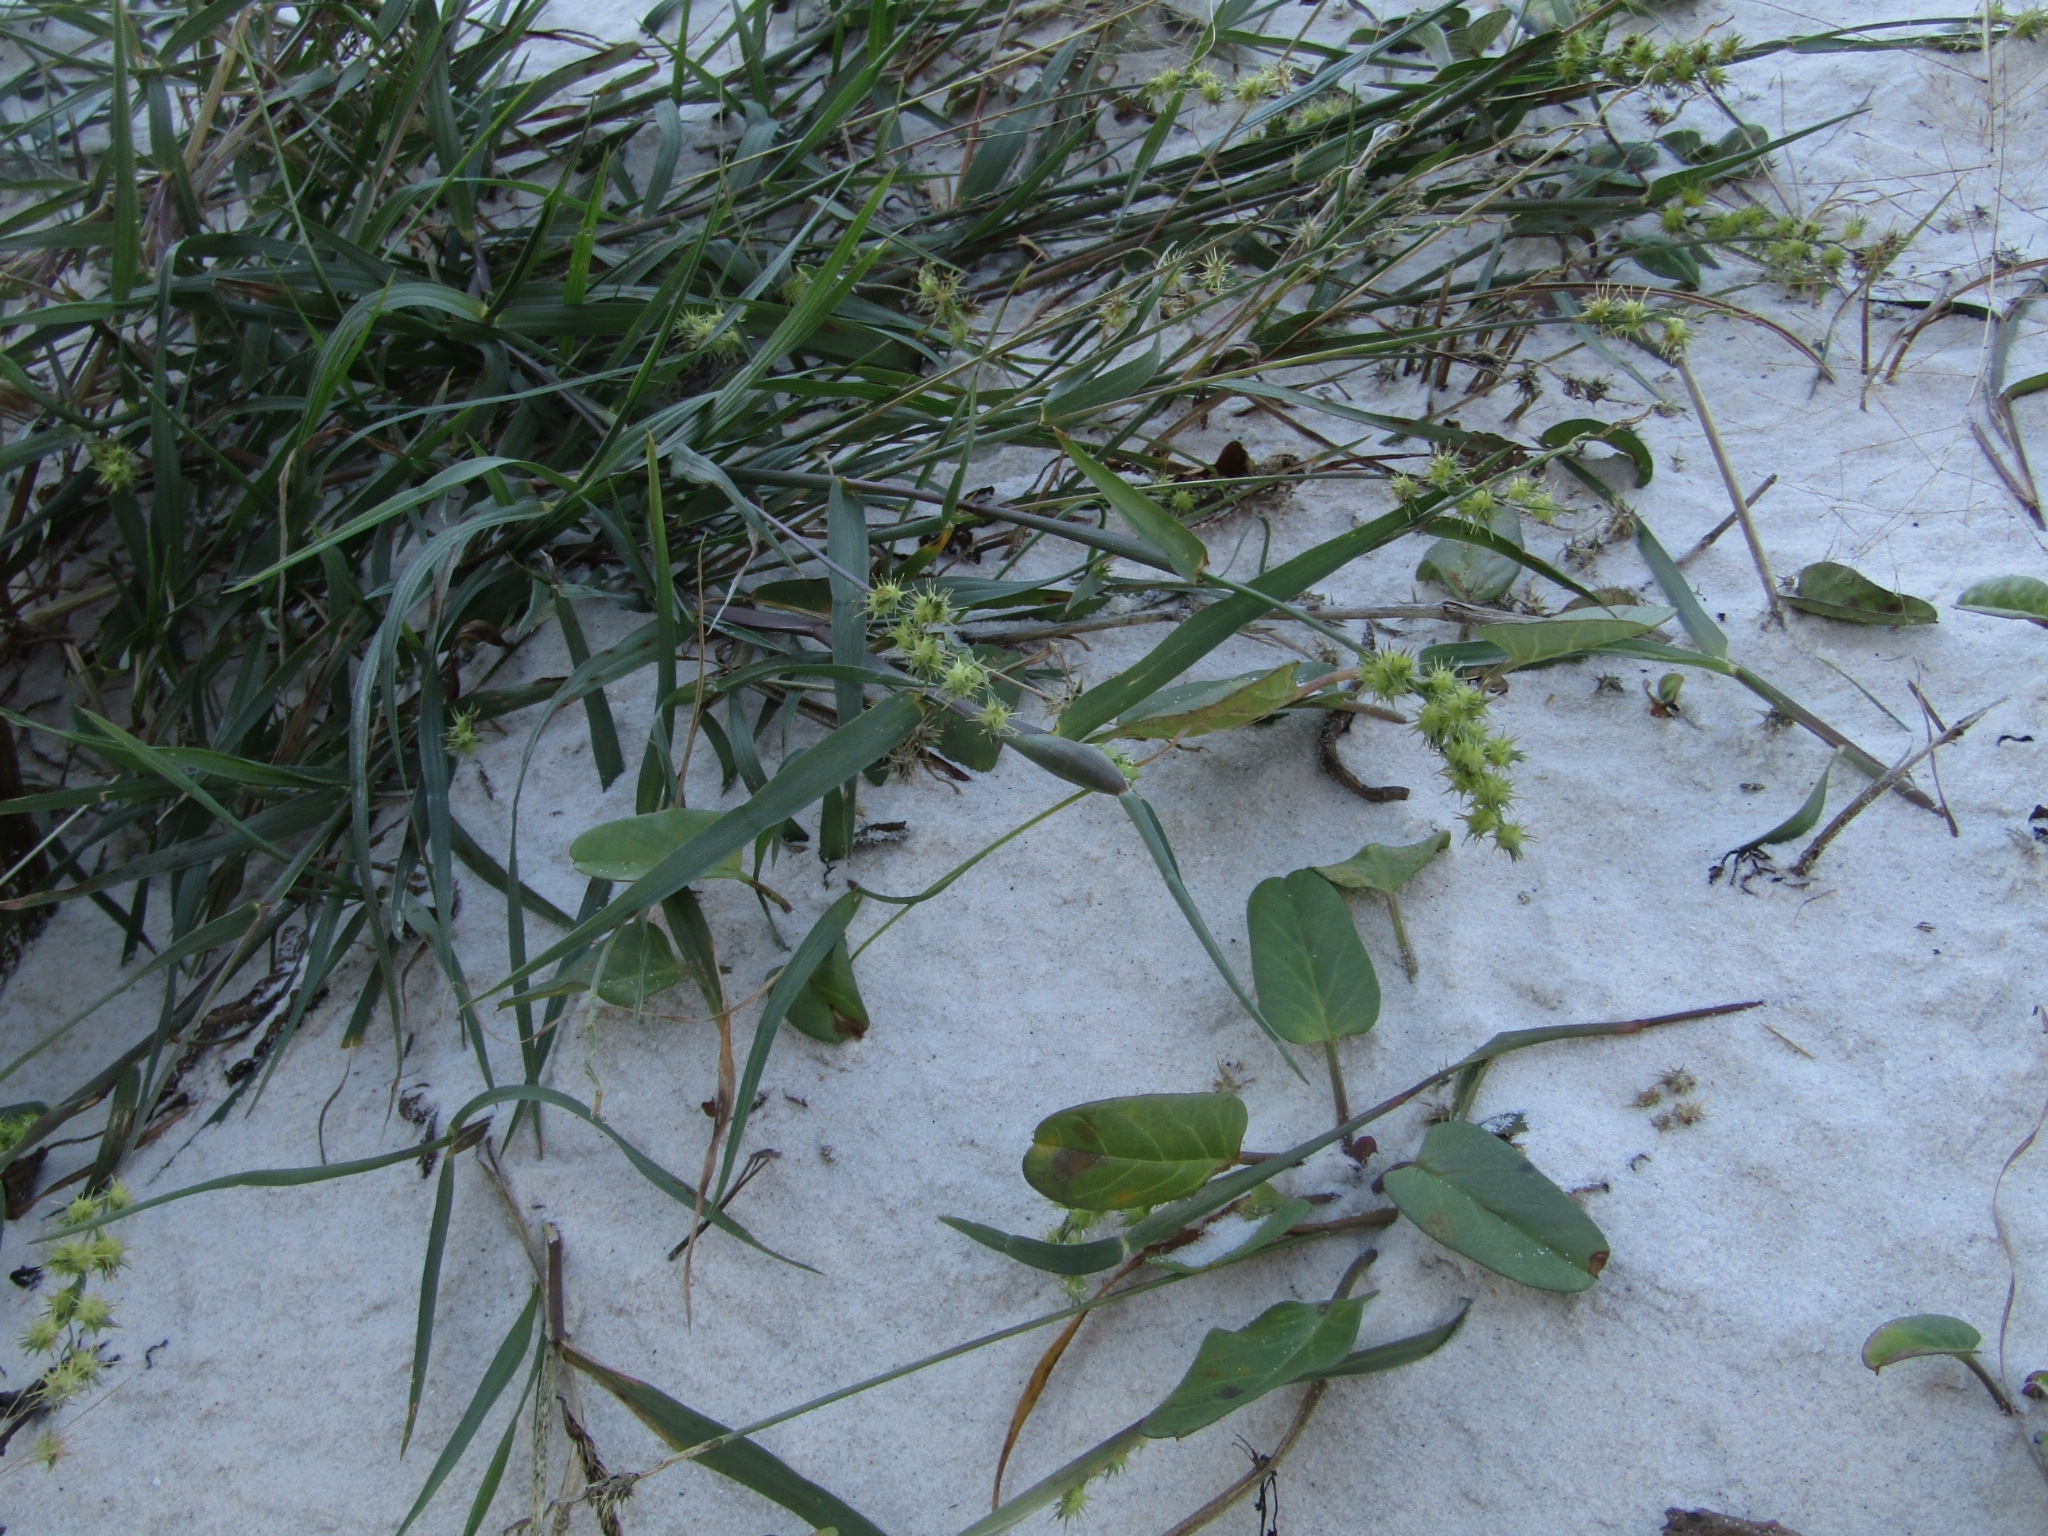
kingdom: Plantae
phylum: Tracheophyta
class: Liliopsida
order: Poales
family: Poaceae
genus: Cenchrus
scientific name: Cenchrus spinifex
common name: Coast sandbur
